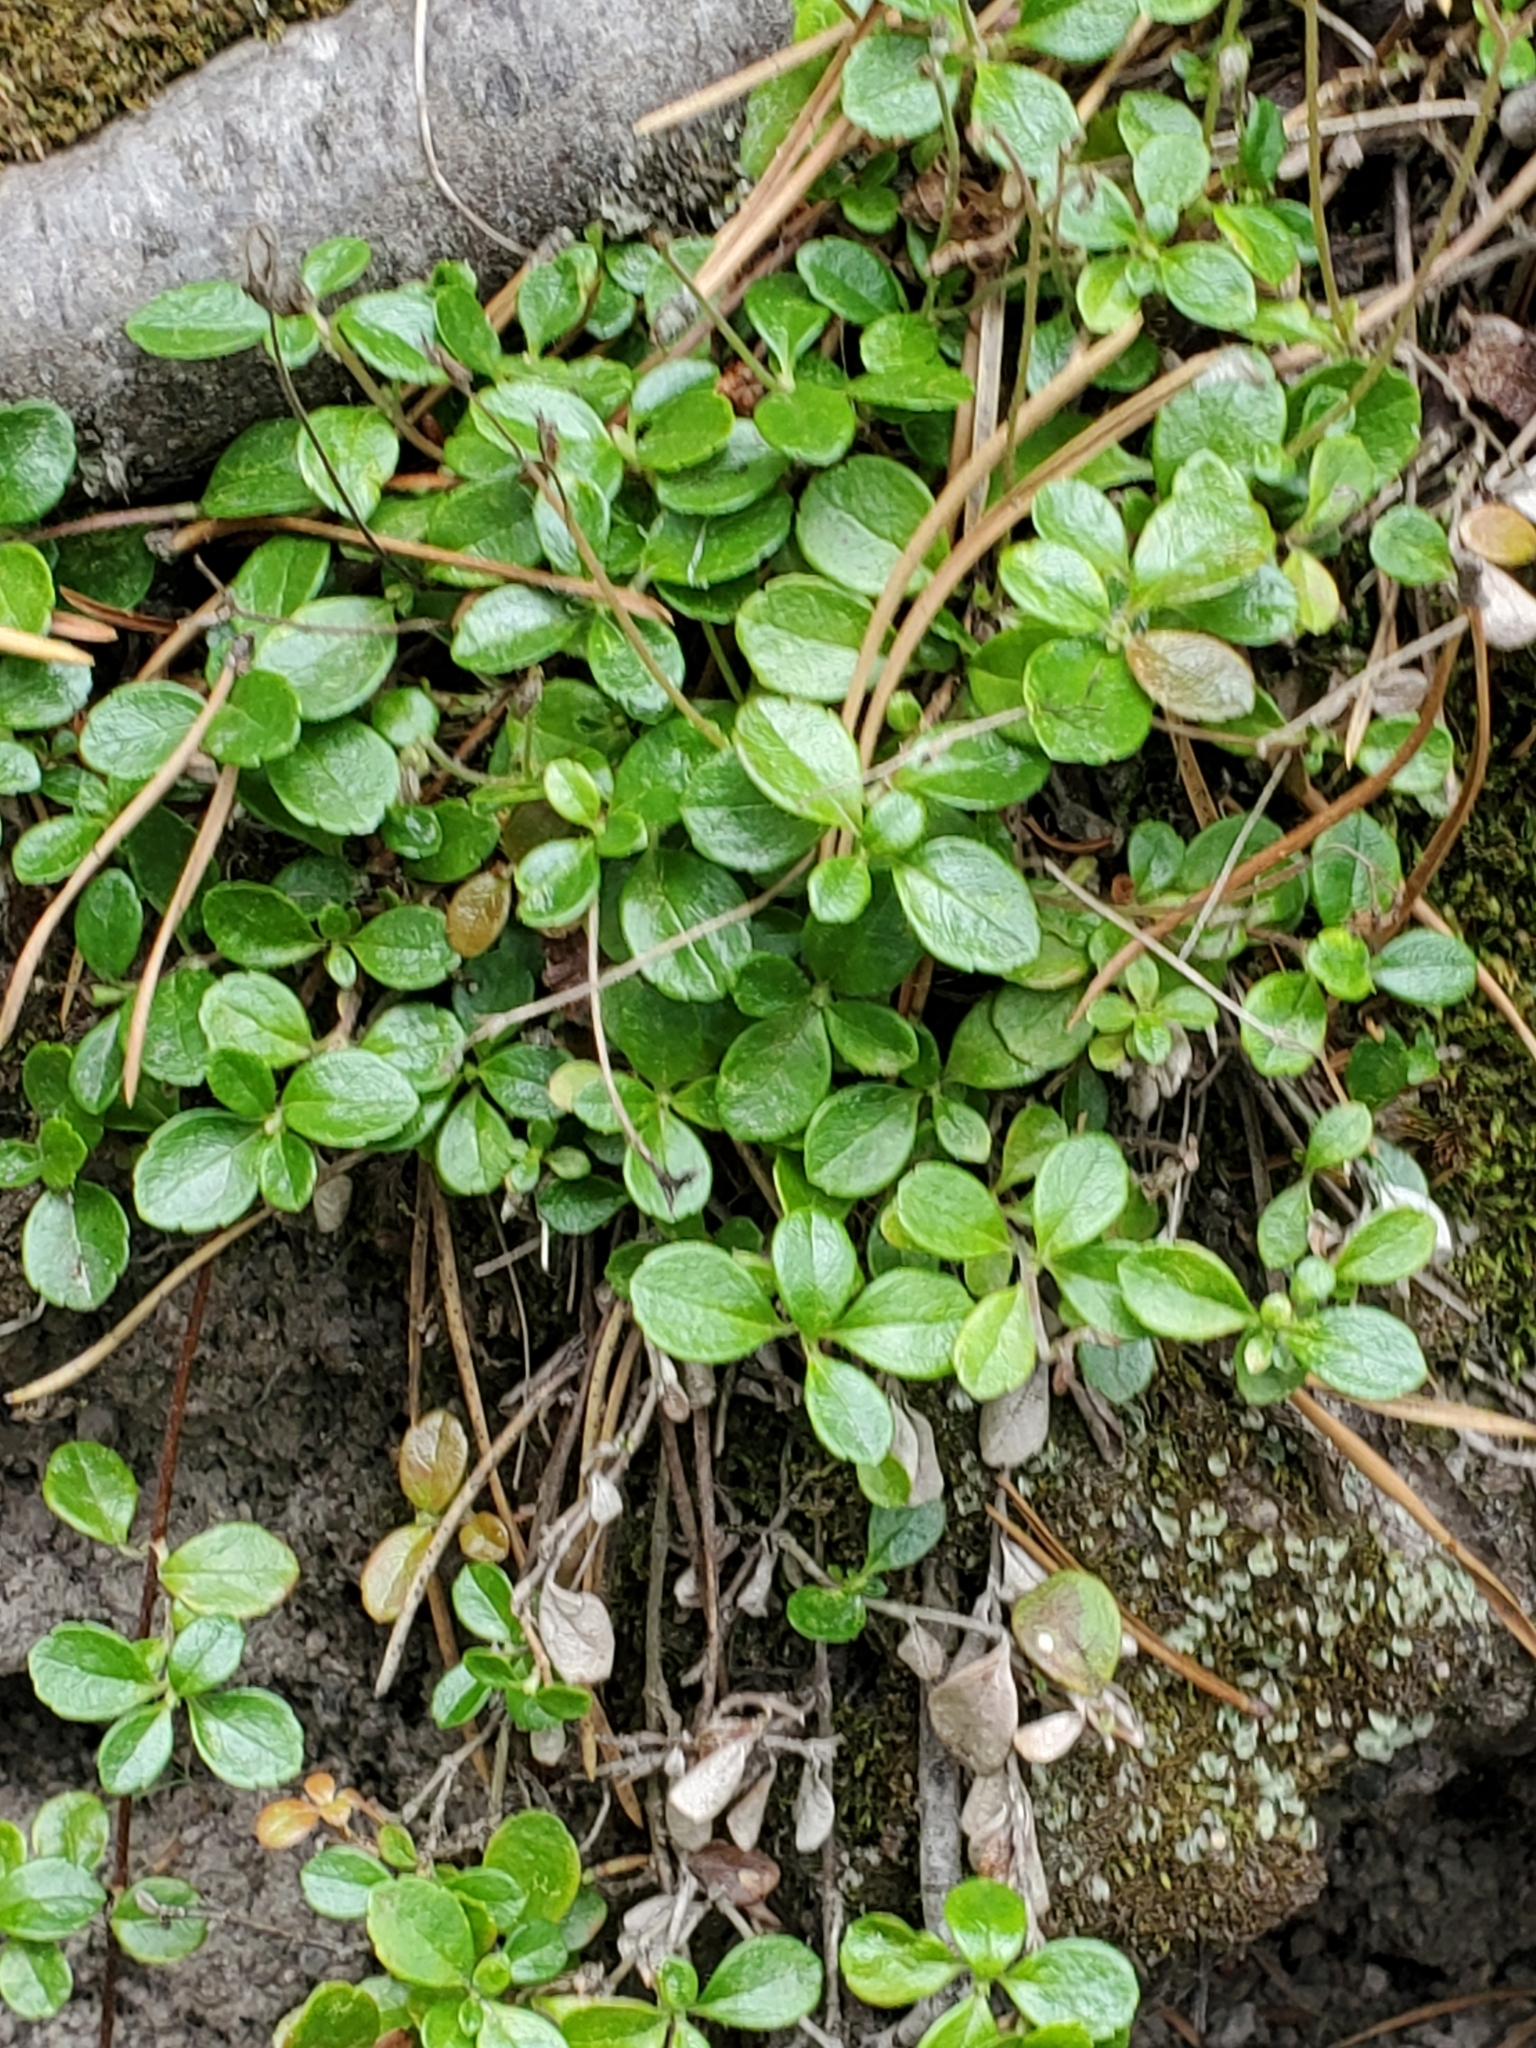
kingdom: Plantae
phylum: Tracheophyta
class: Magnoliopsida
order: Dipsacales
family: Caprifoliaceae
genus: Linnaea
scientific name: Linnaea borealis
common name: Twinflower
